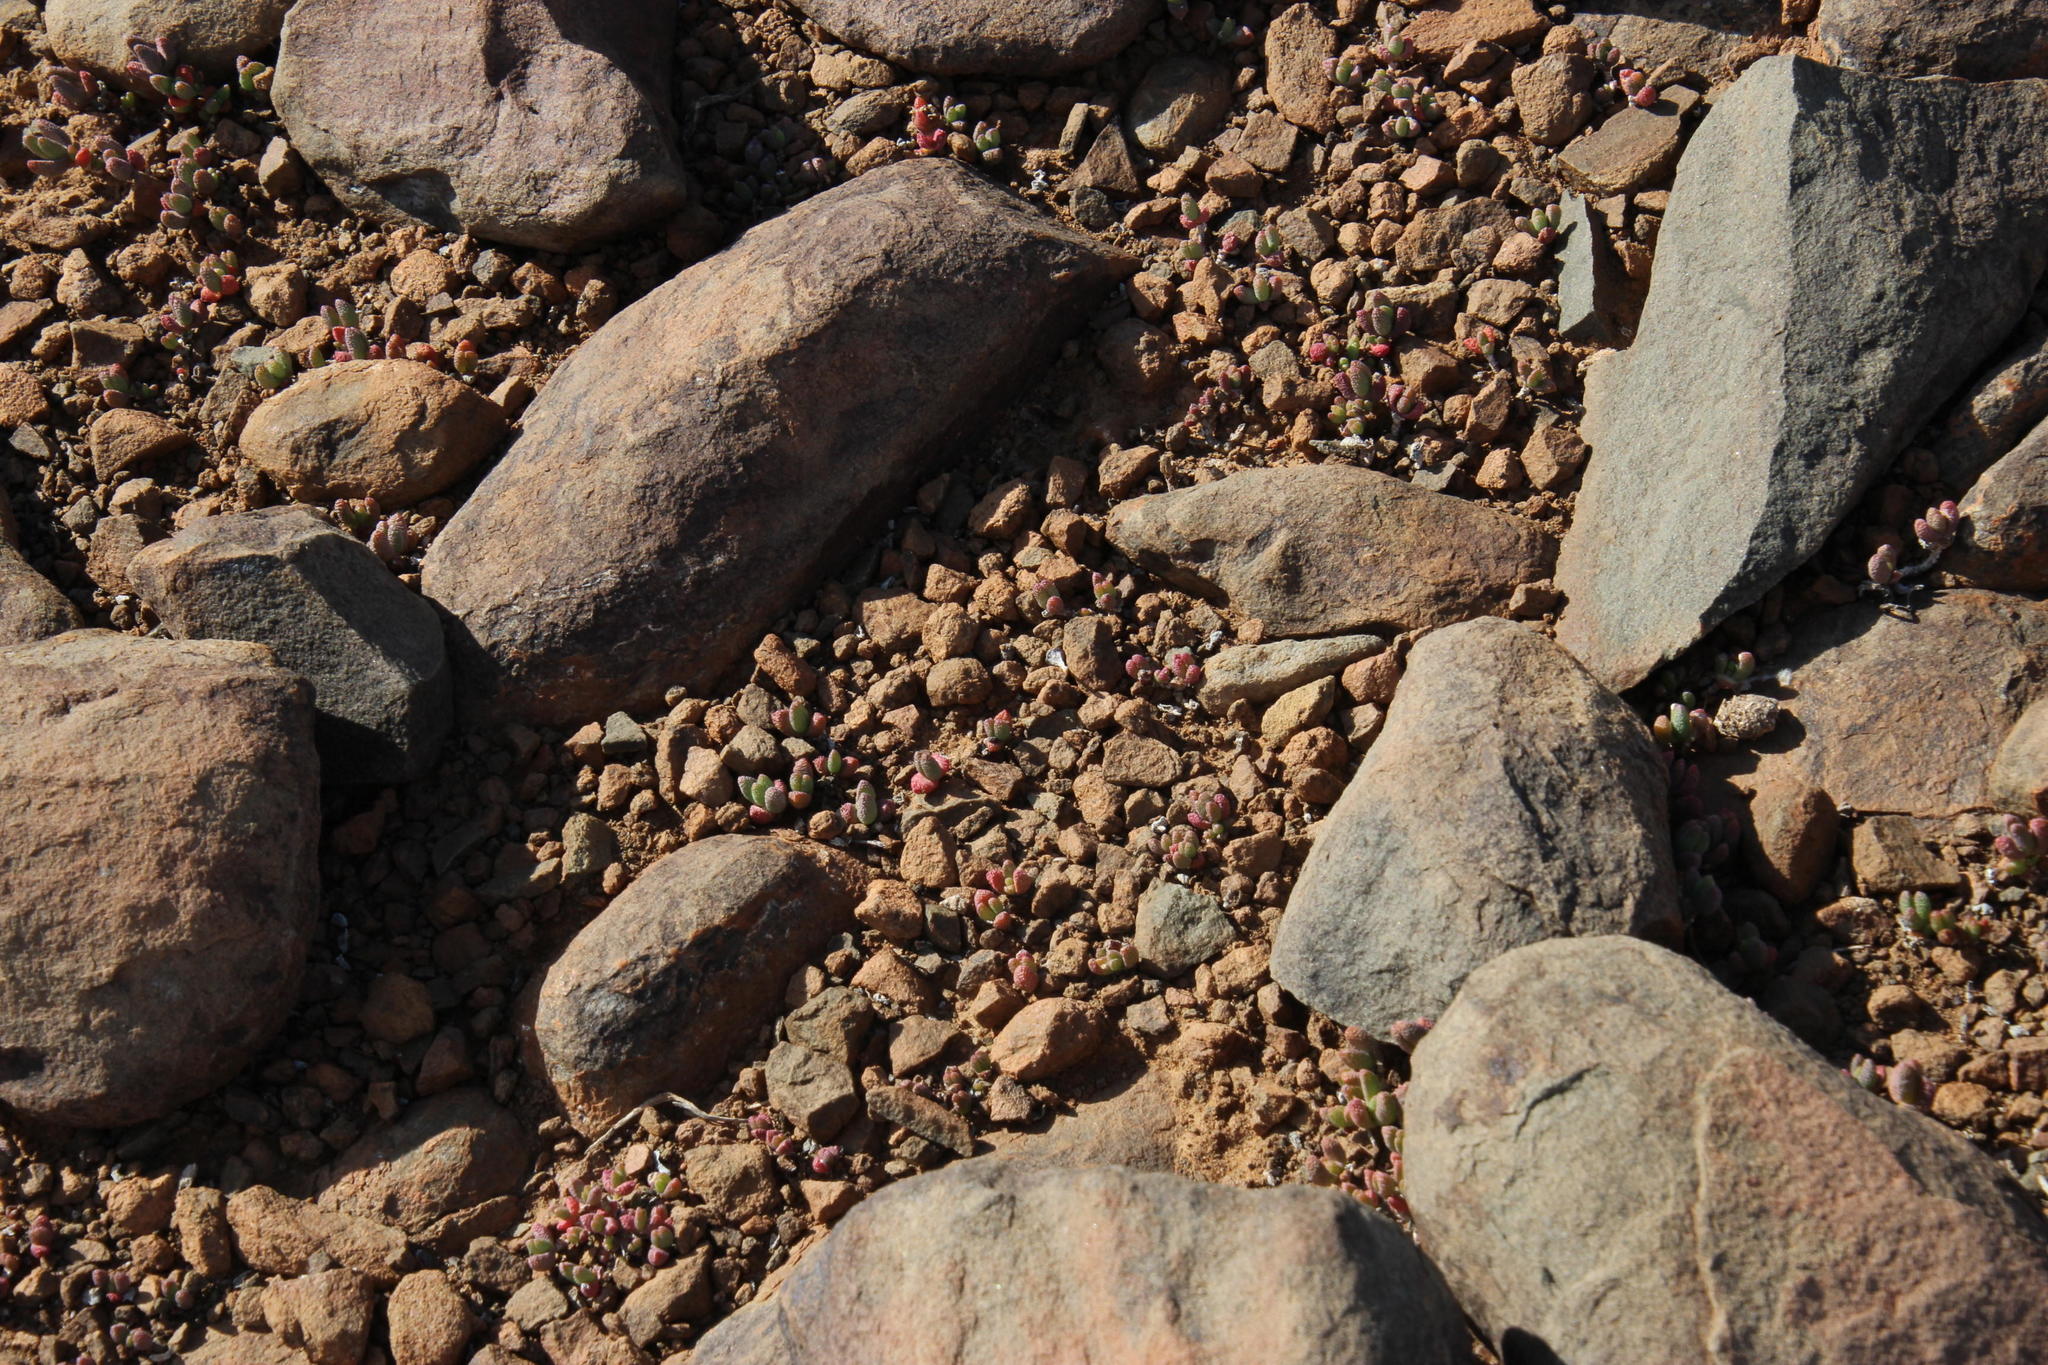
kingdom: Plantae
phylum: Tracheophyta
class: Magnoliopsida
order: Caryophyllales
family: Aizoaceae
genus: Rhinephyllum
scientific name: Rhinephyllum parvifolium
